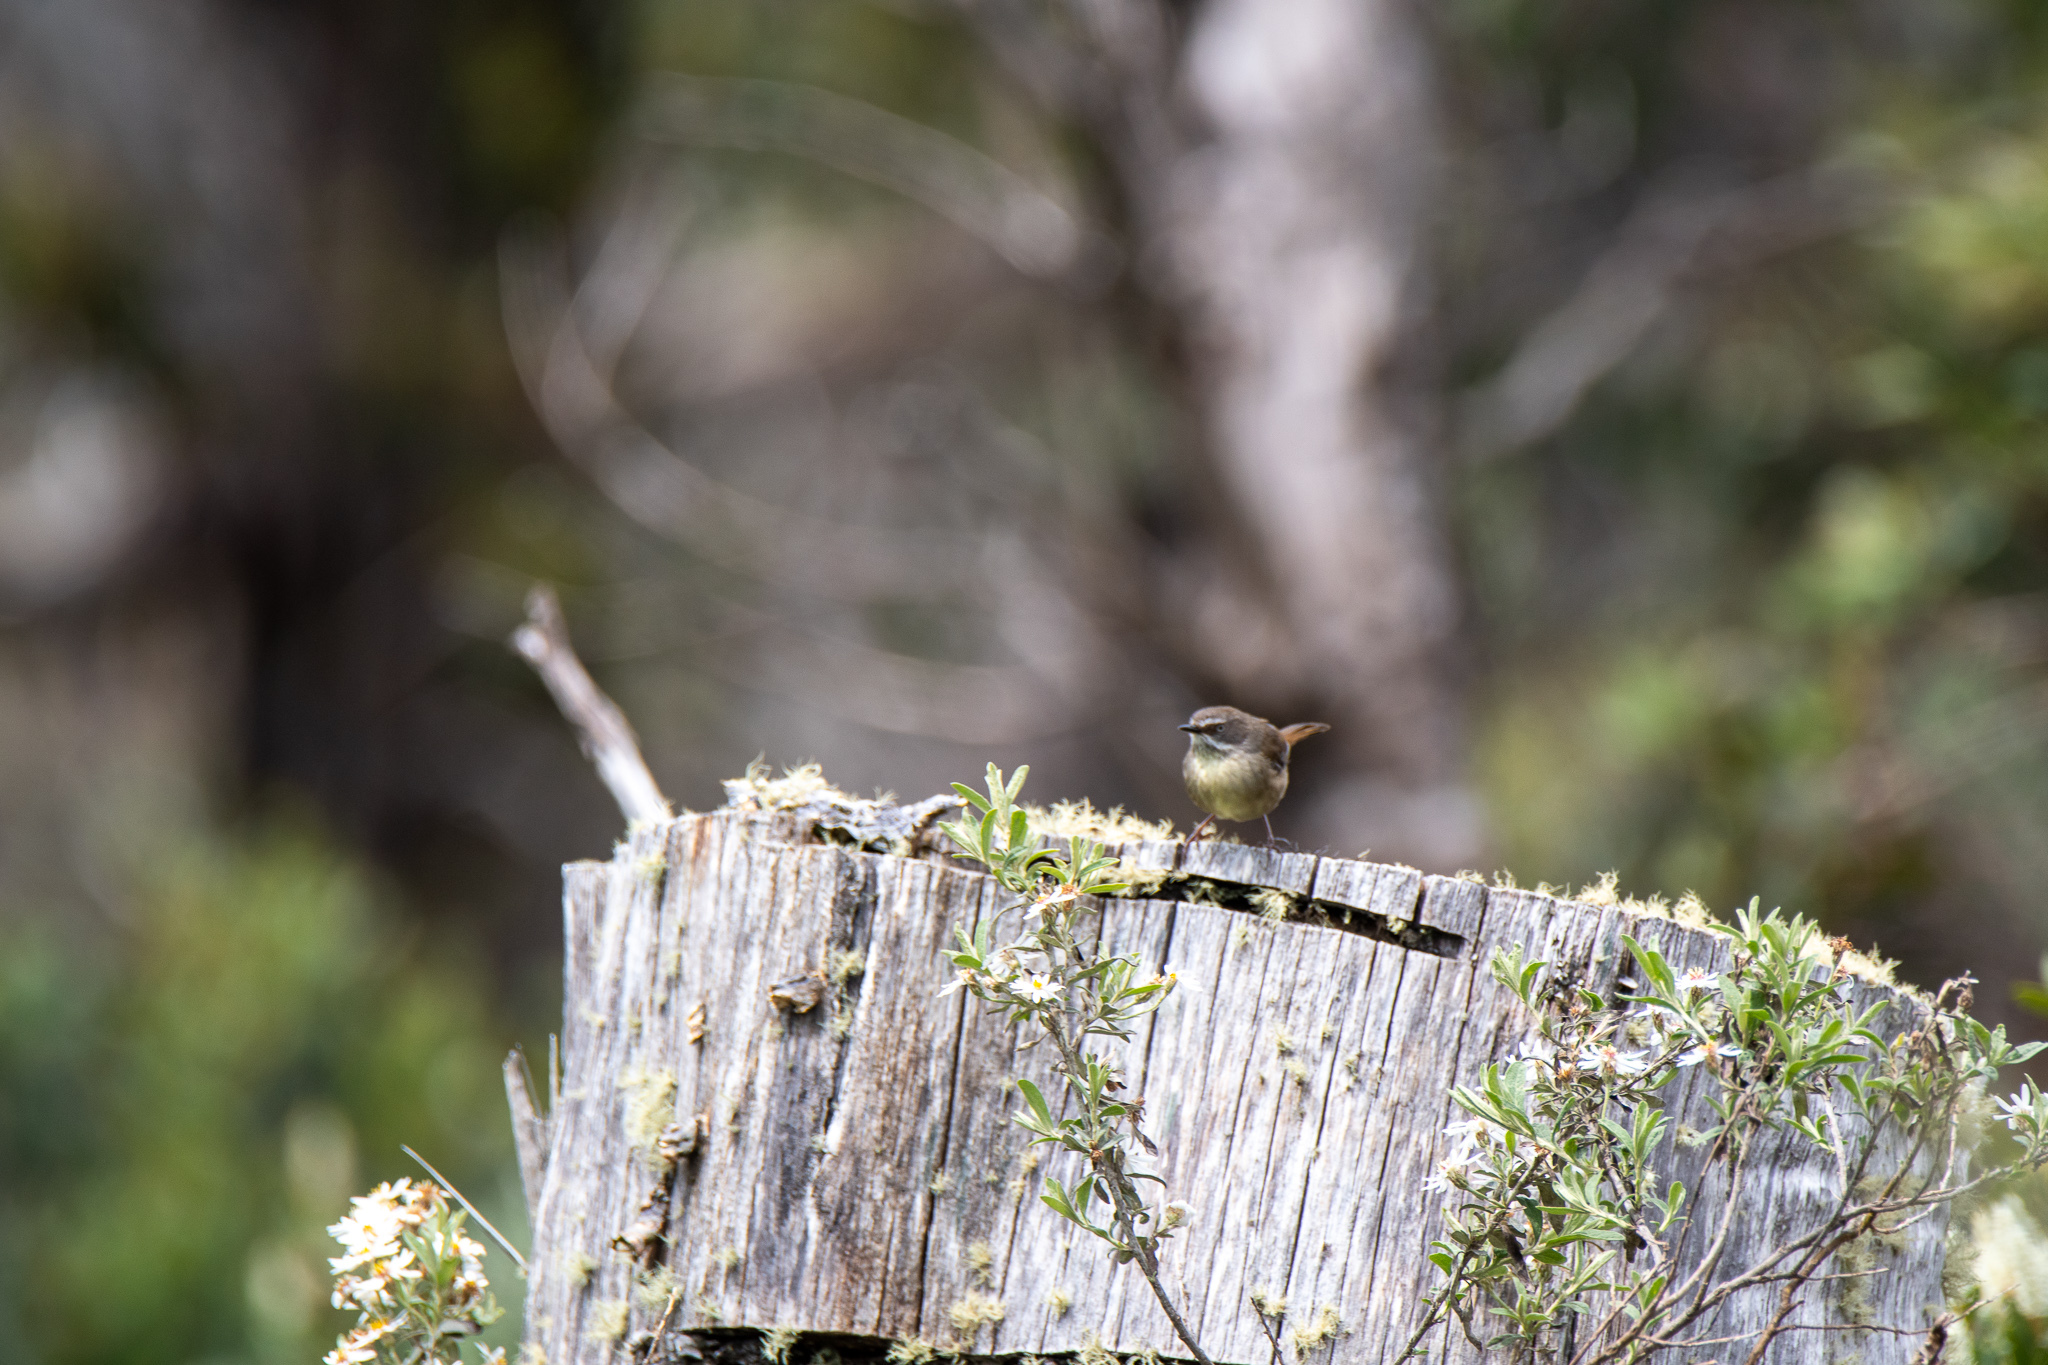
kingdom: Animalia
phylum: Chordata
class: Aves
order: Passeriformes
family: Acanthizidae
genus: Sericornis
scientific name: Sericornis frontalis
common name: White-browed scrubwren
